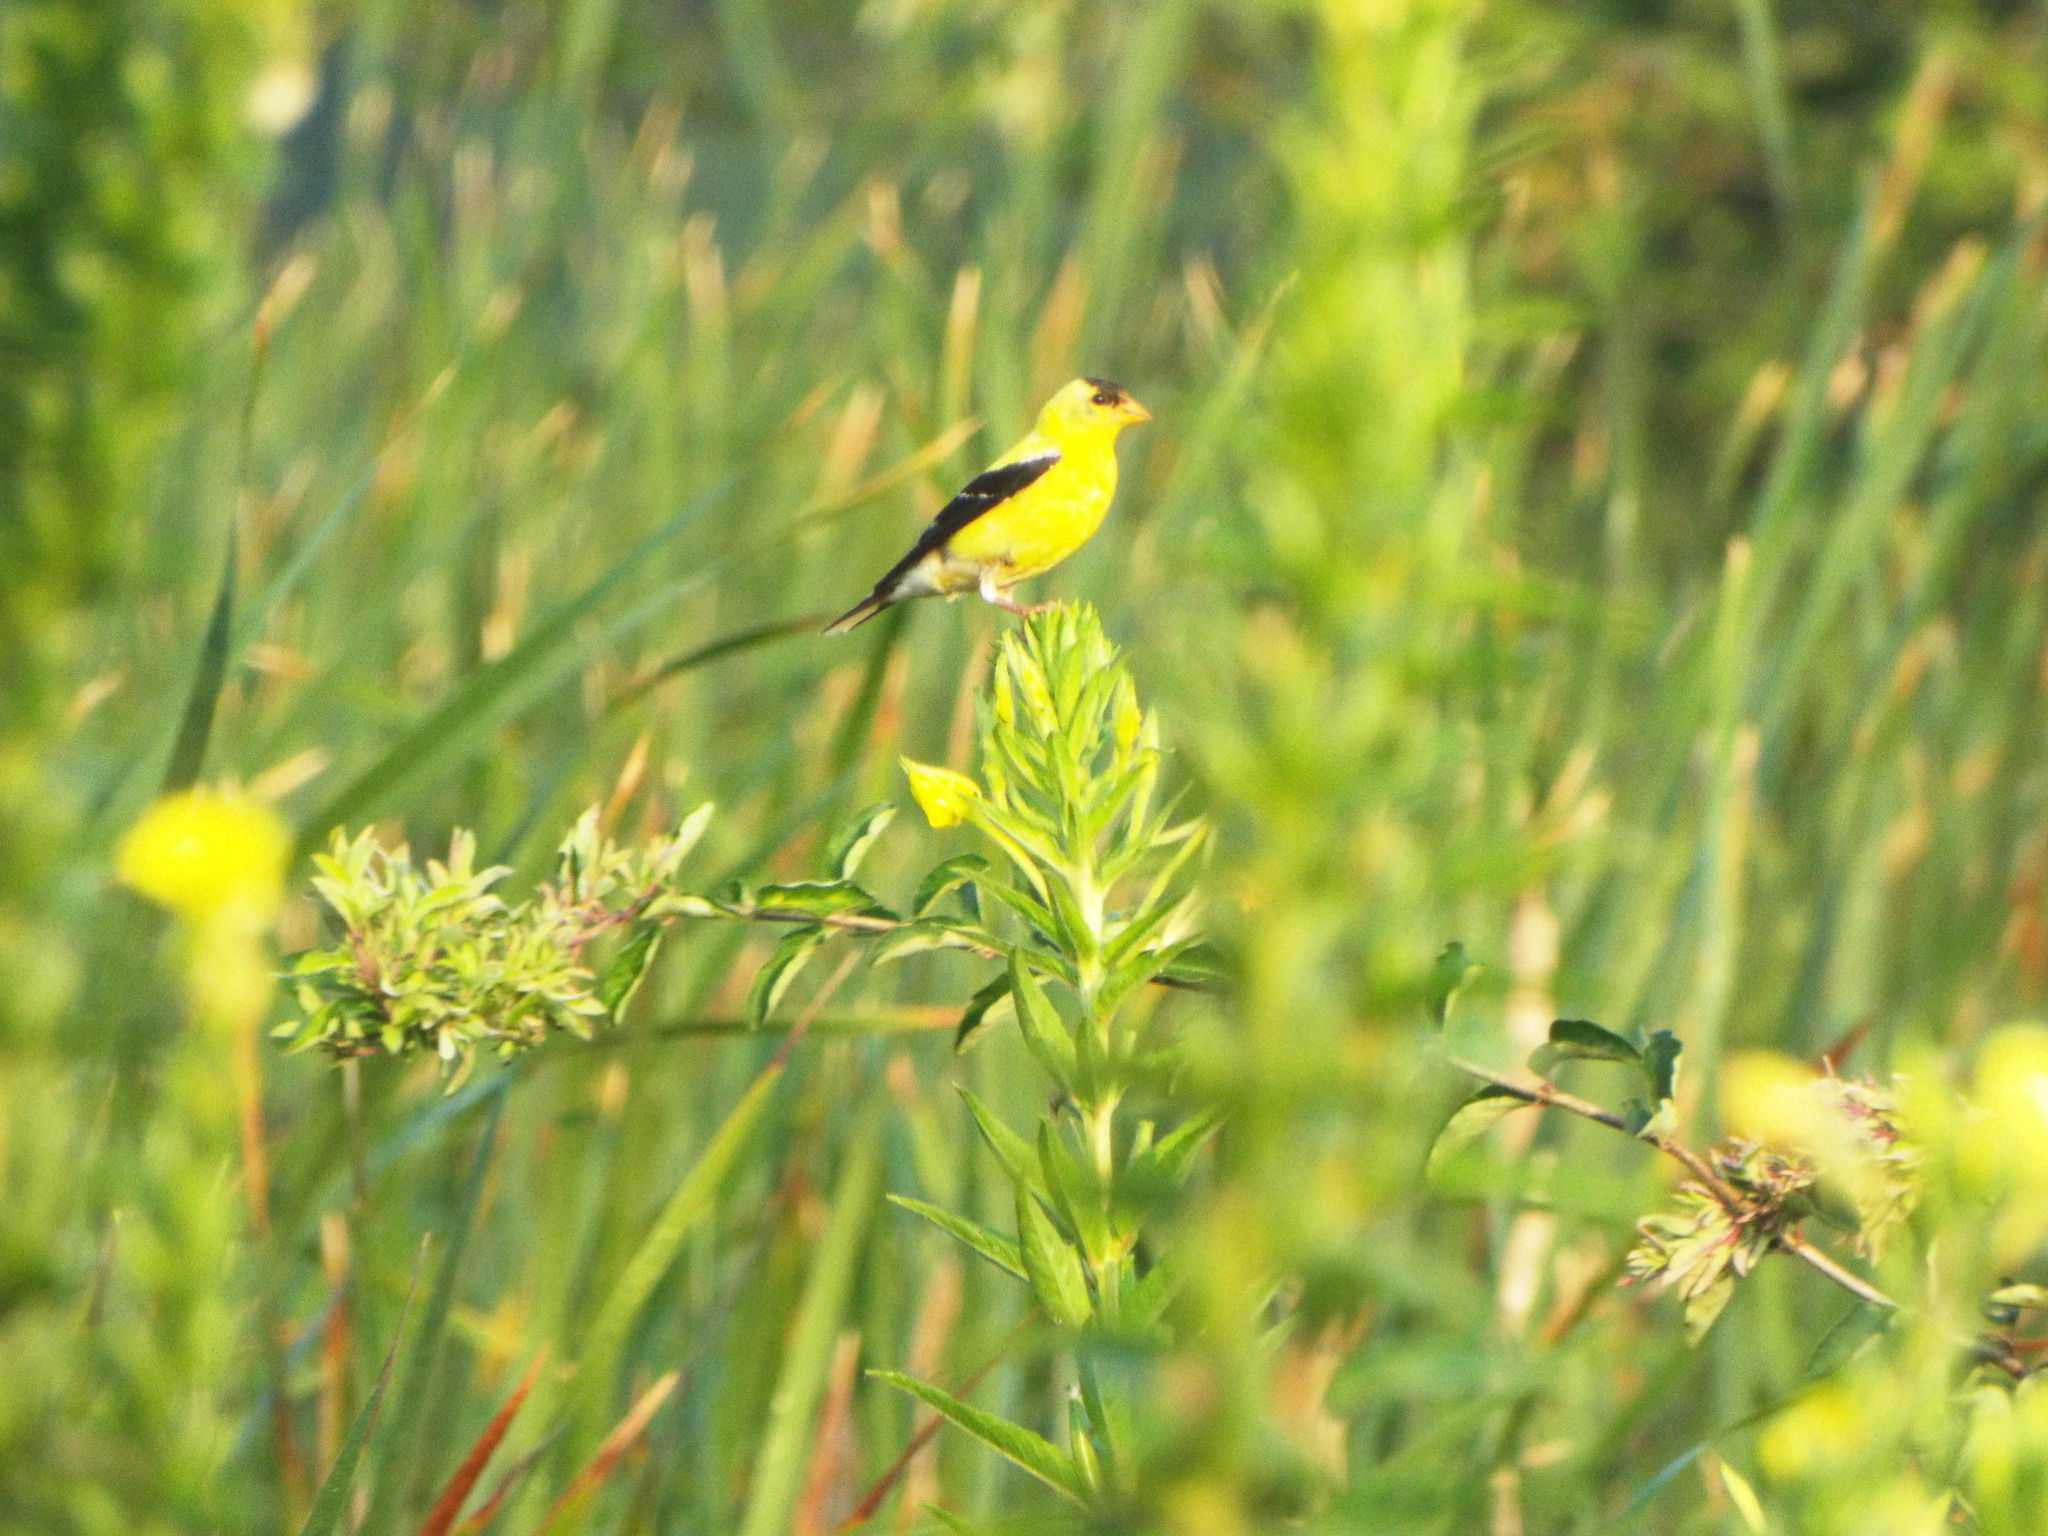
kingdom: Animalia
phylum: Chordata
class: Aves
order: Passeriformes
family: Fringillidae
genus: Spinus
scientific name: Spinus tristis
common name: American goldfinch
